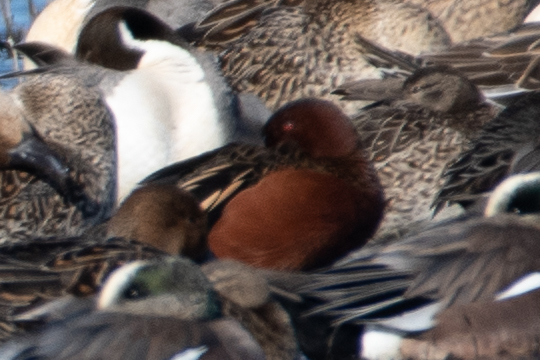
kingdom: Animalia
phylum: Chordata
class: Aves
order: Anseriformes
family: Anatidae
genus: Spatula
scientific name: Spatula cyanoptera
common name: Cinnamon teal
